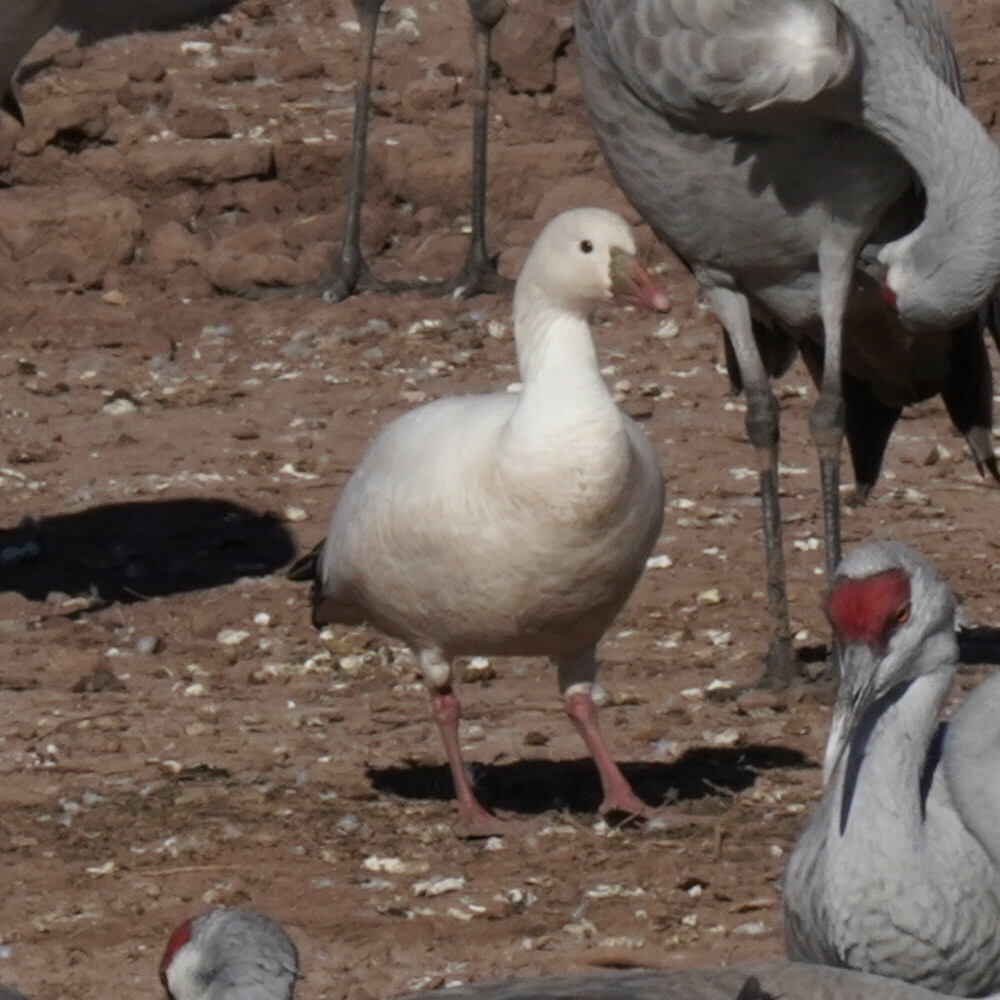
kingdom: Animalia
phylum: Chordata
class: Aves
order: Anseriformes
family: Anatidae
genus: Anser
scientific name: Anser caerulescens
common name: Snow goose
